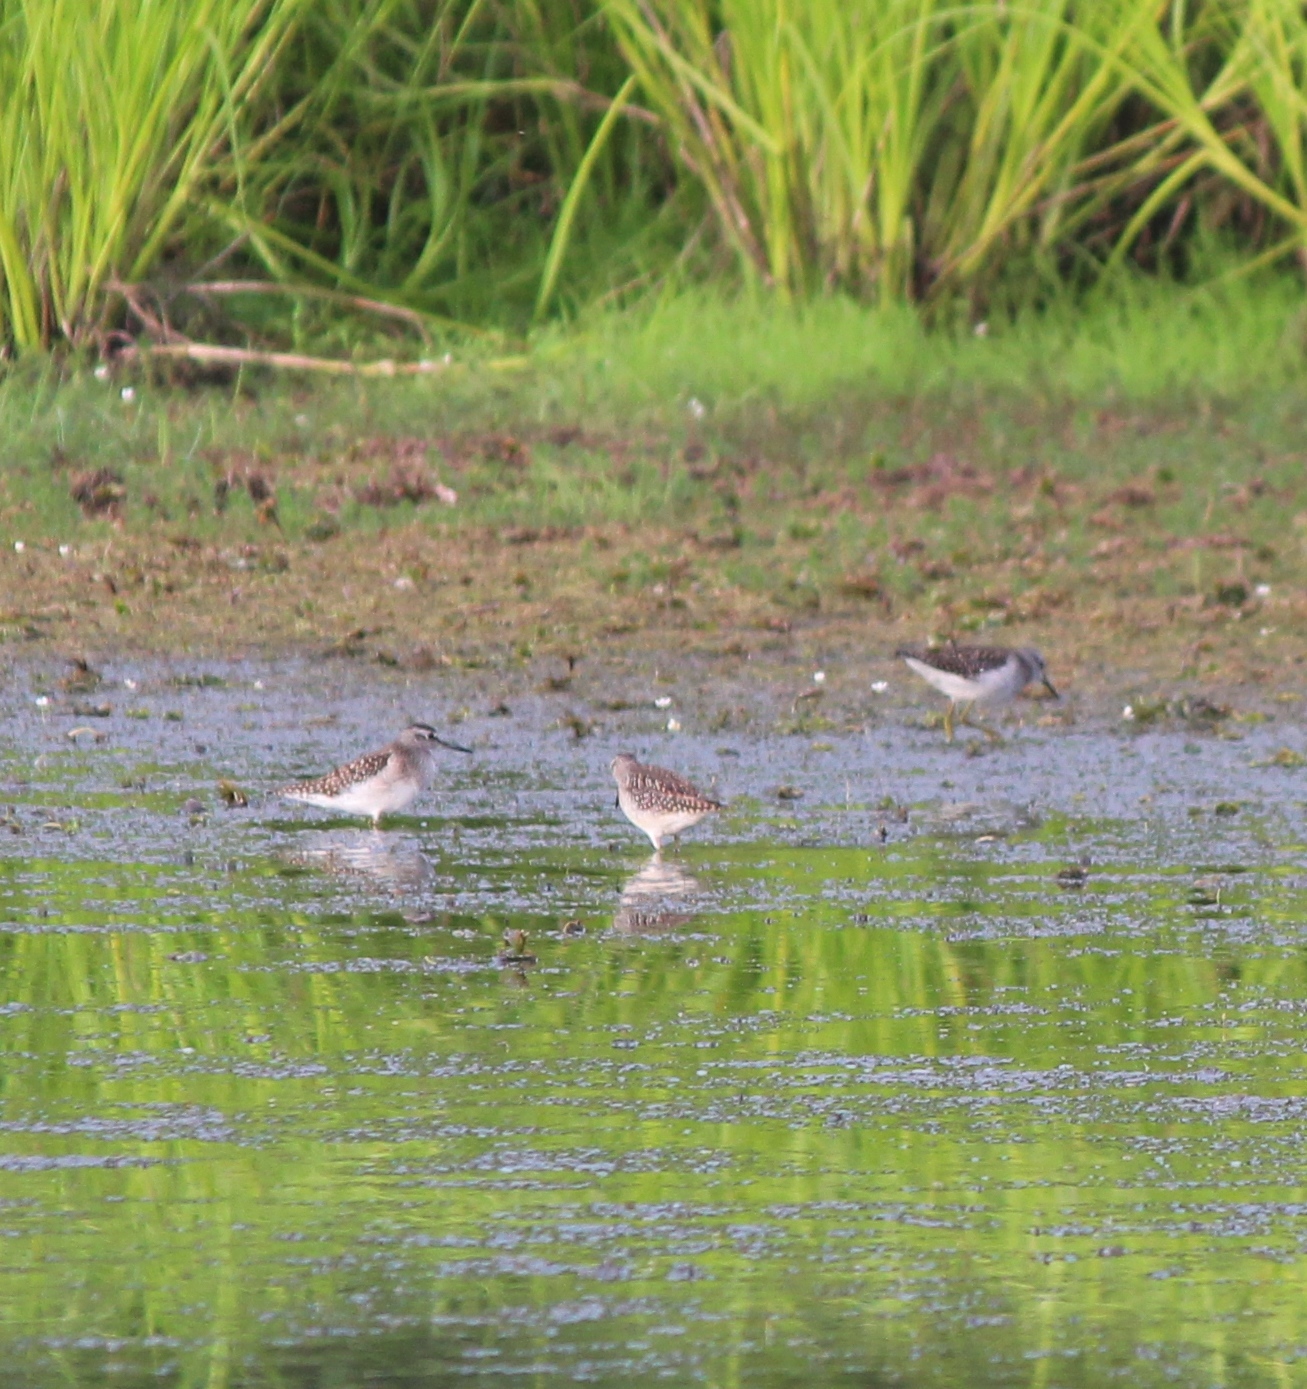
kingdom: Animalia
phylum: Chordata
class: Aves
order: Charadriiformes
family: Scolopacidae
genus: Tringa
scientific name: Tringa glareola
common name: Wood sandpiper
